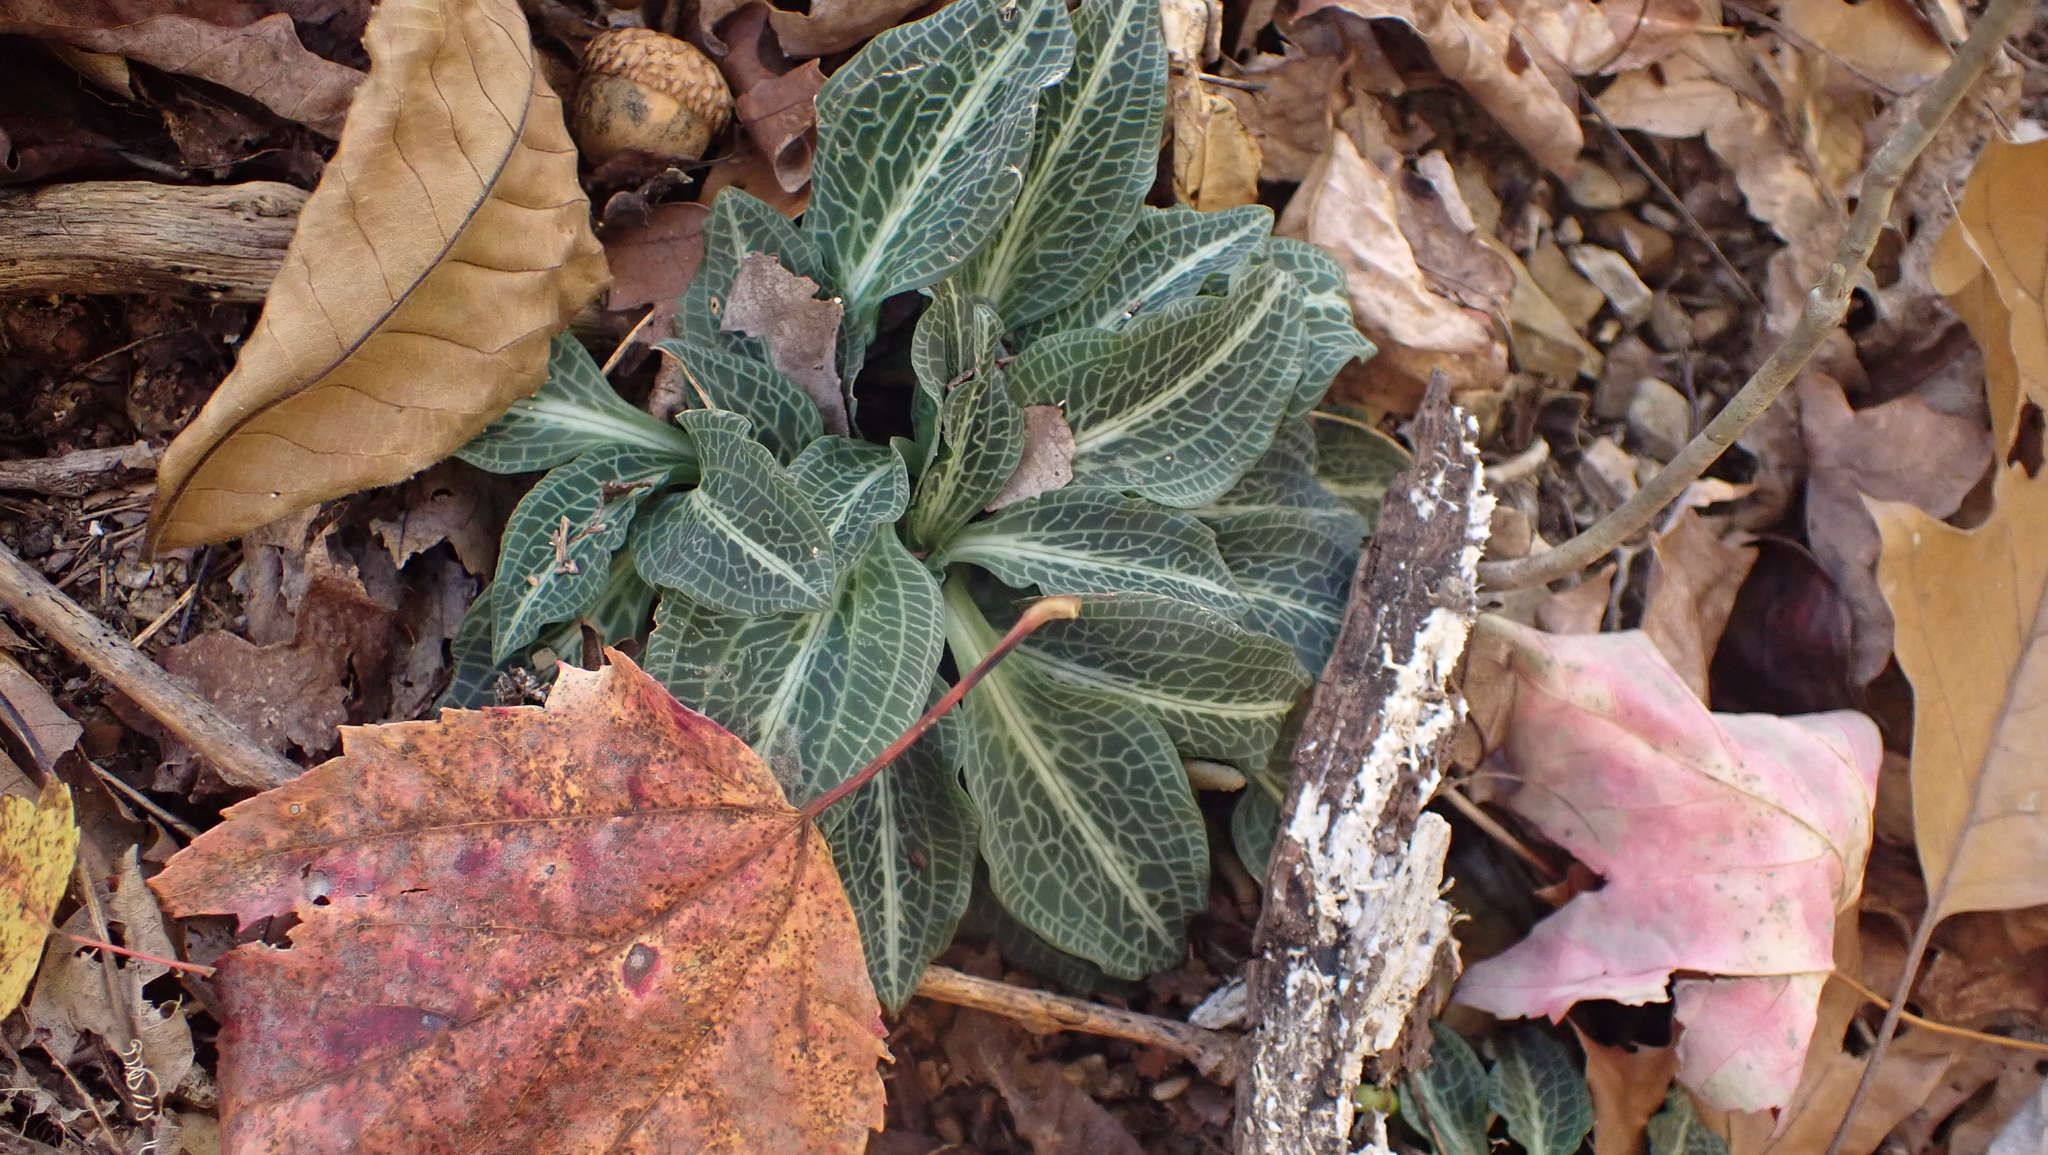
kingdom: Plantae
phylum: Tracheophyta
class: Liliopsida
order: Asparagales
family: Orchidaceae
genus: Goodyera
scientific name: Goodyera pubescens
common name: Downy rattlesnake-plantain
